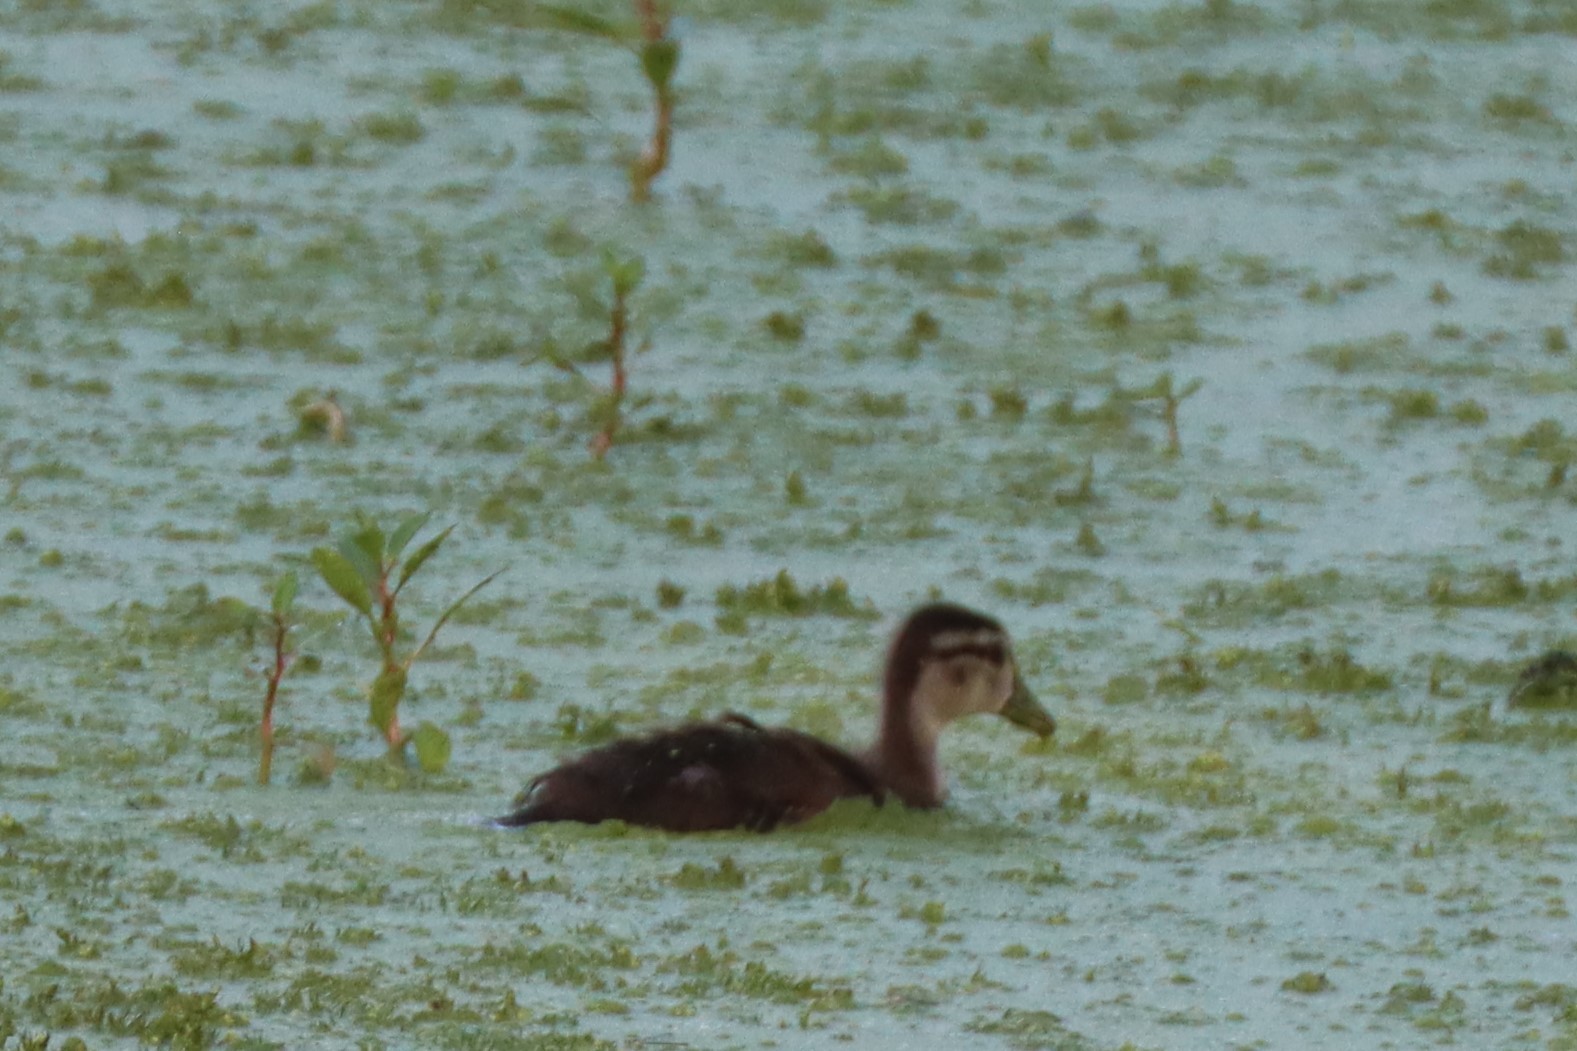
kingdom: Animalia
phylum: Chordata
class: Aves
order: Anseriformes
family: Anatidae
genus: Aix
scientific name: Aix sponsa
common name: Wood duck
